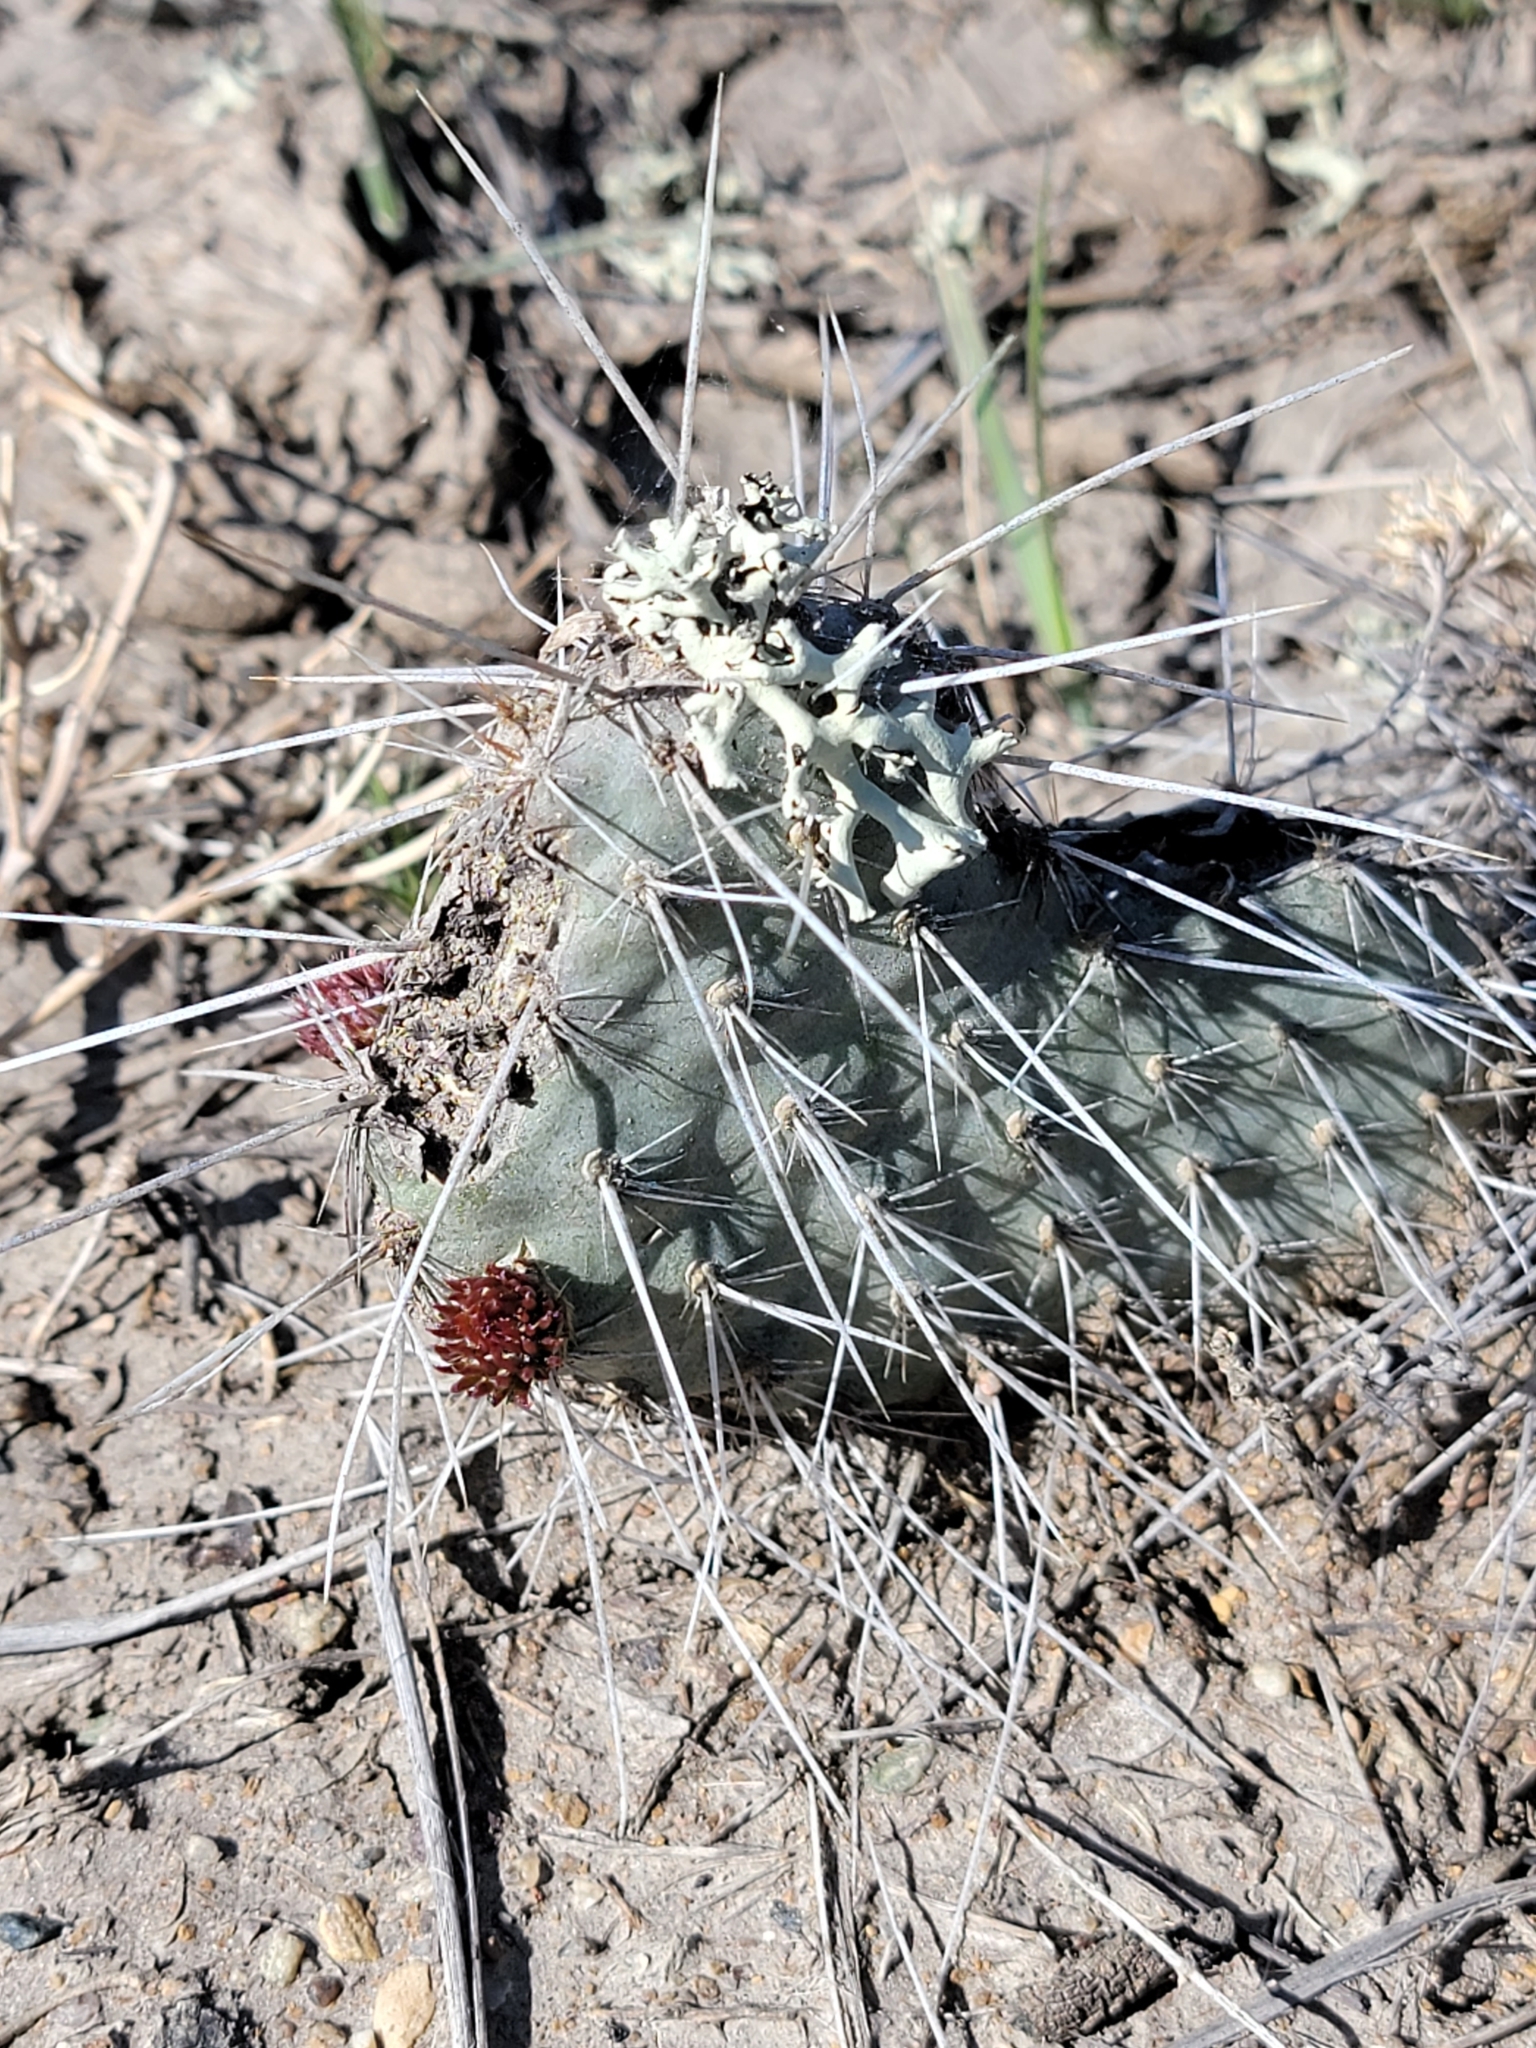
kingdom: Plantae
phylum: Tracheophyta
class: Magnoliopsida
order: Caryophyllales
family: Cactaceae
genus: Opuntia
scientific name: Opuntia polyacantha
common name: Plains prickly-pear
